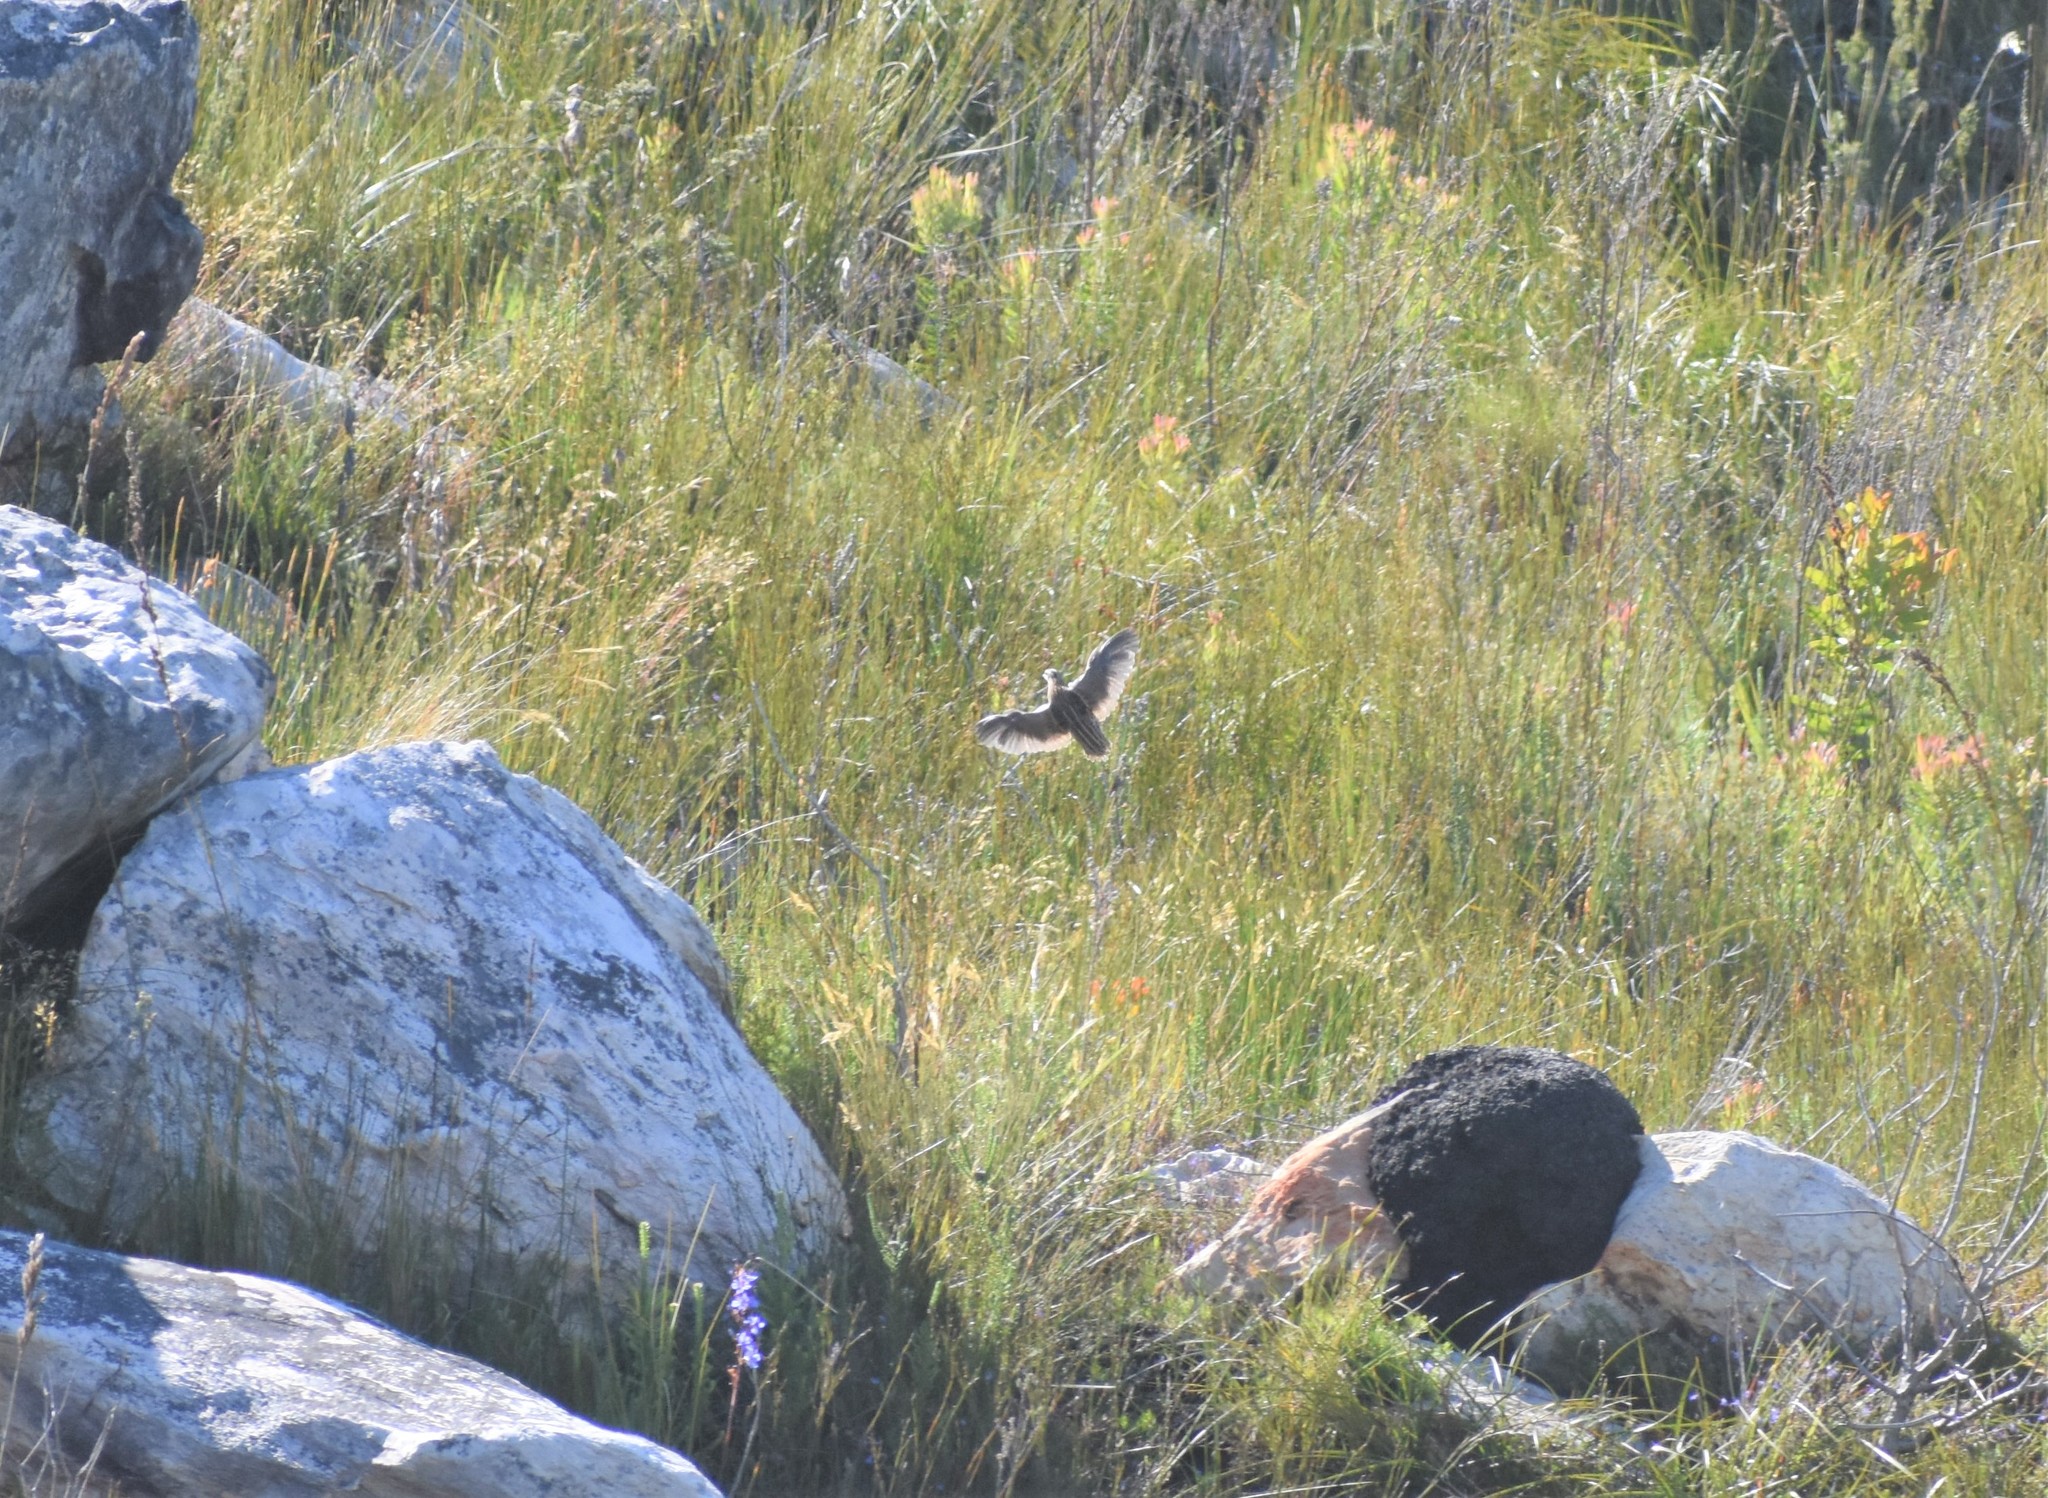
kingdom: Animalia
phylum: Chordata
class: Aves
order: Galliformes
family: Phasianidae
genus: Coturnix
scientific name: Coturnix coturnix
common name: Common quail
